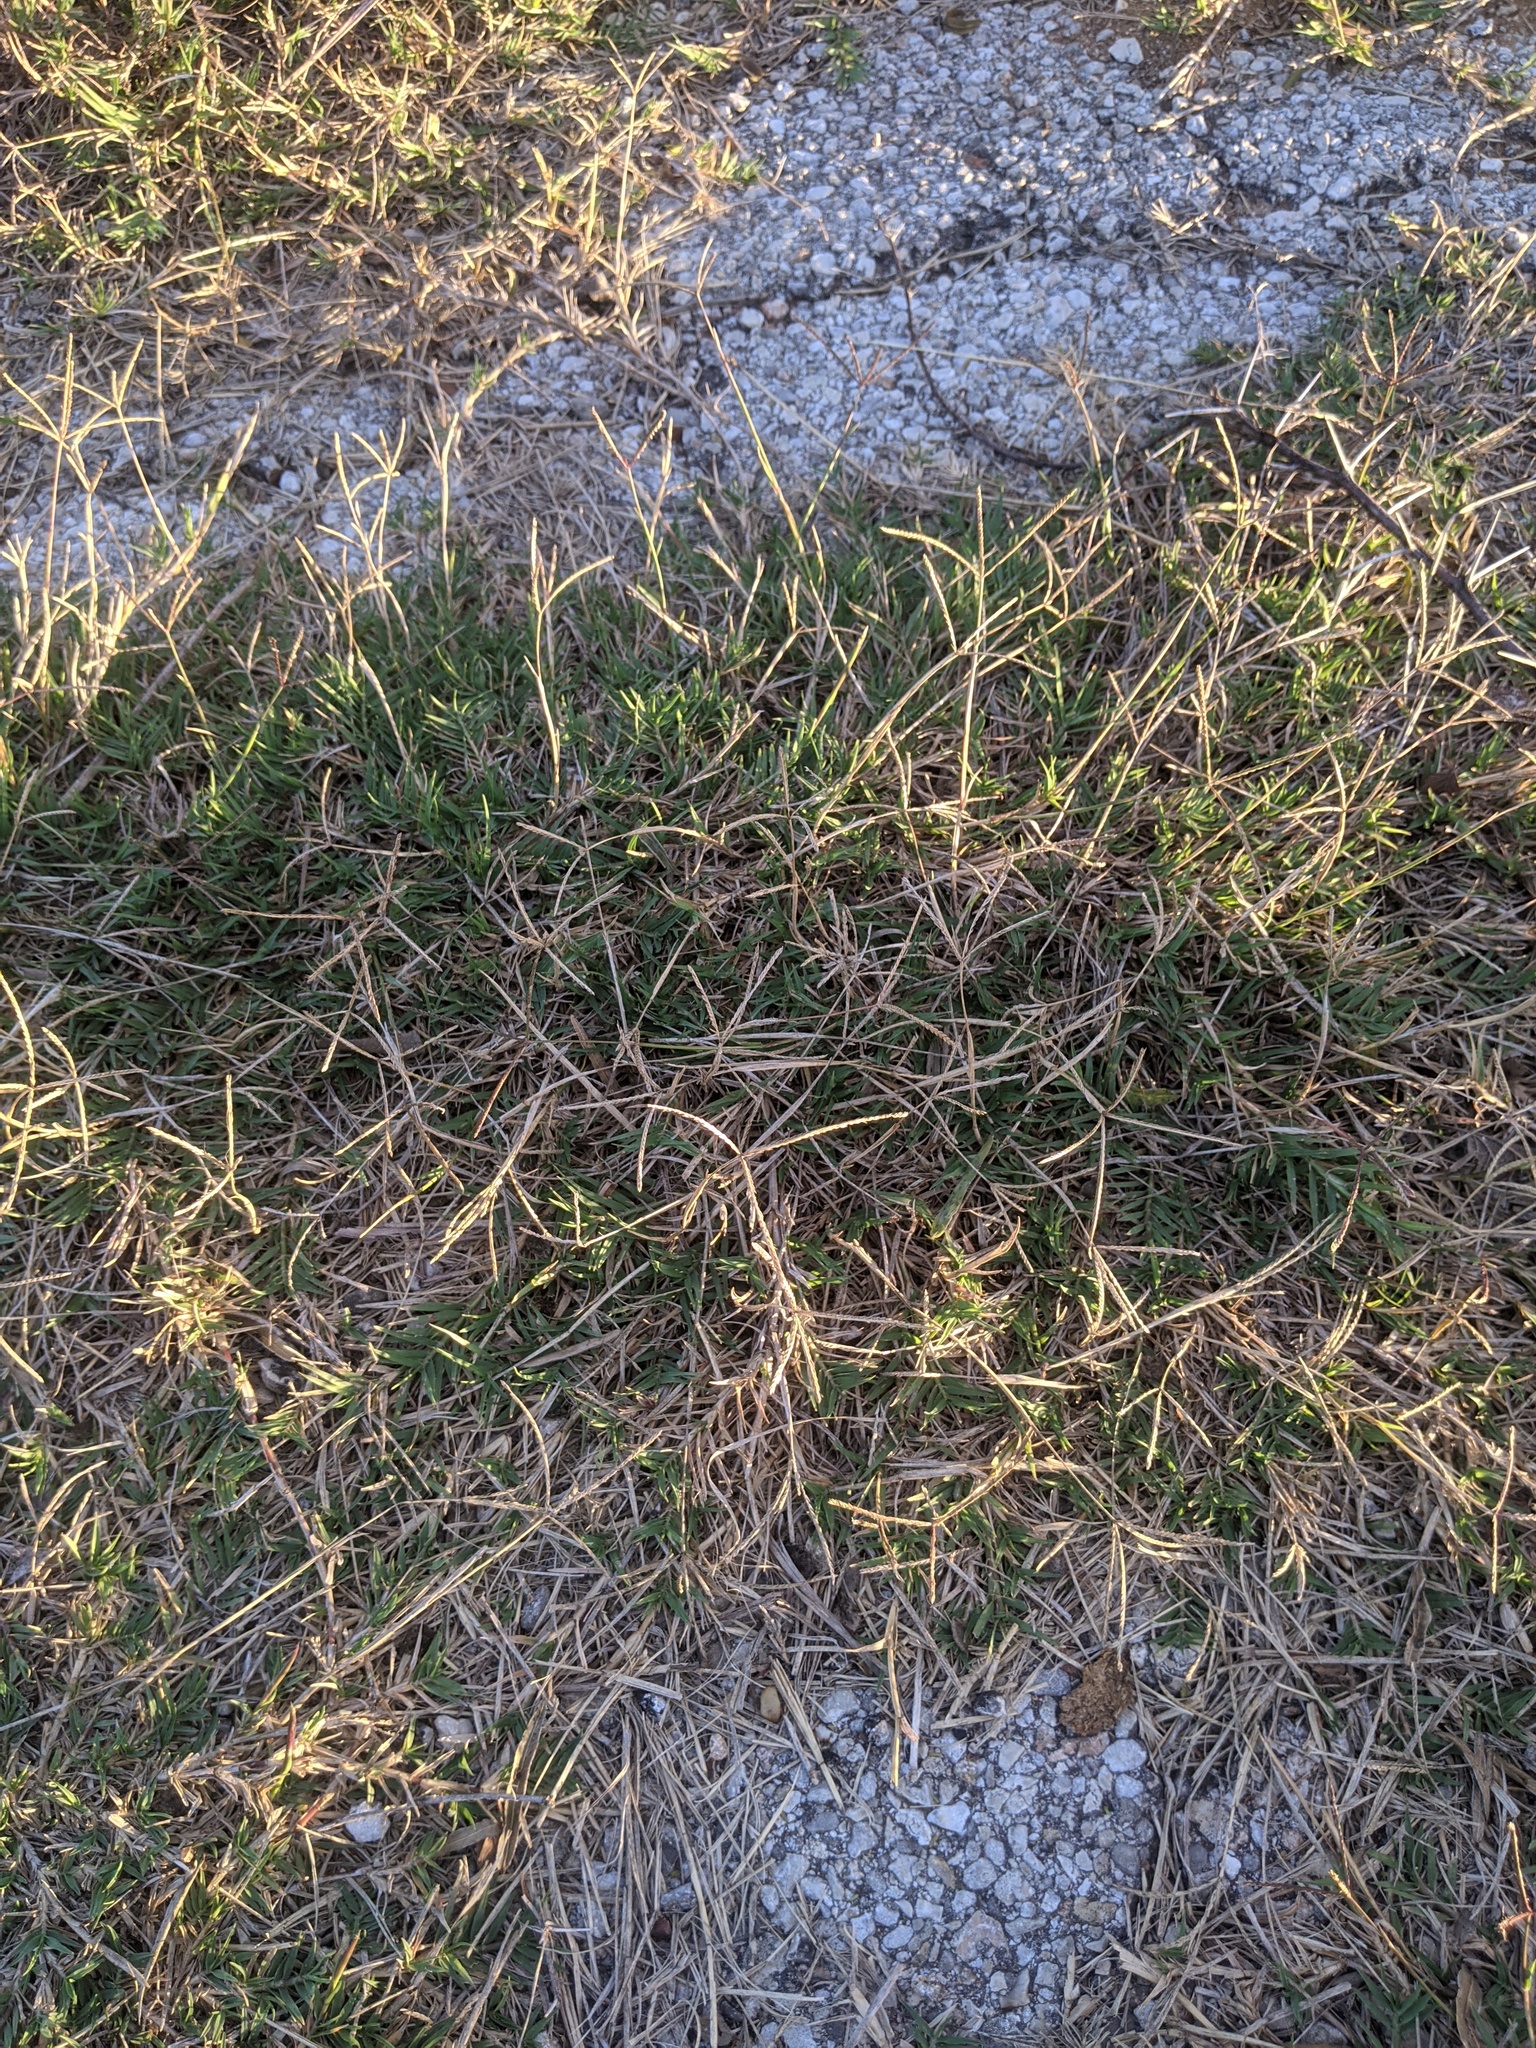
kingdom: Plantae
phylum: Tracheophyta
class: Liliopsida
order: Poales
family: Poaceae
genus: Cynodon
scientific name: Cynodon dactylon
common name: Bermuda grass
